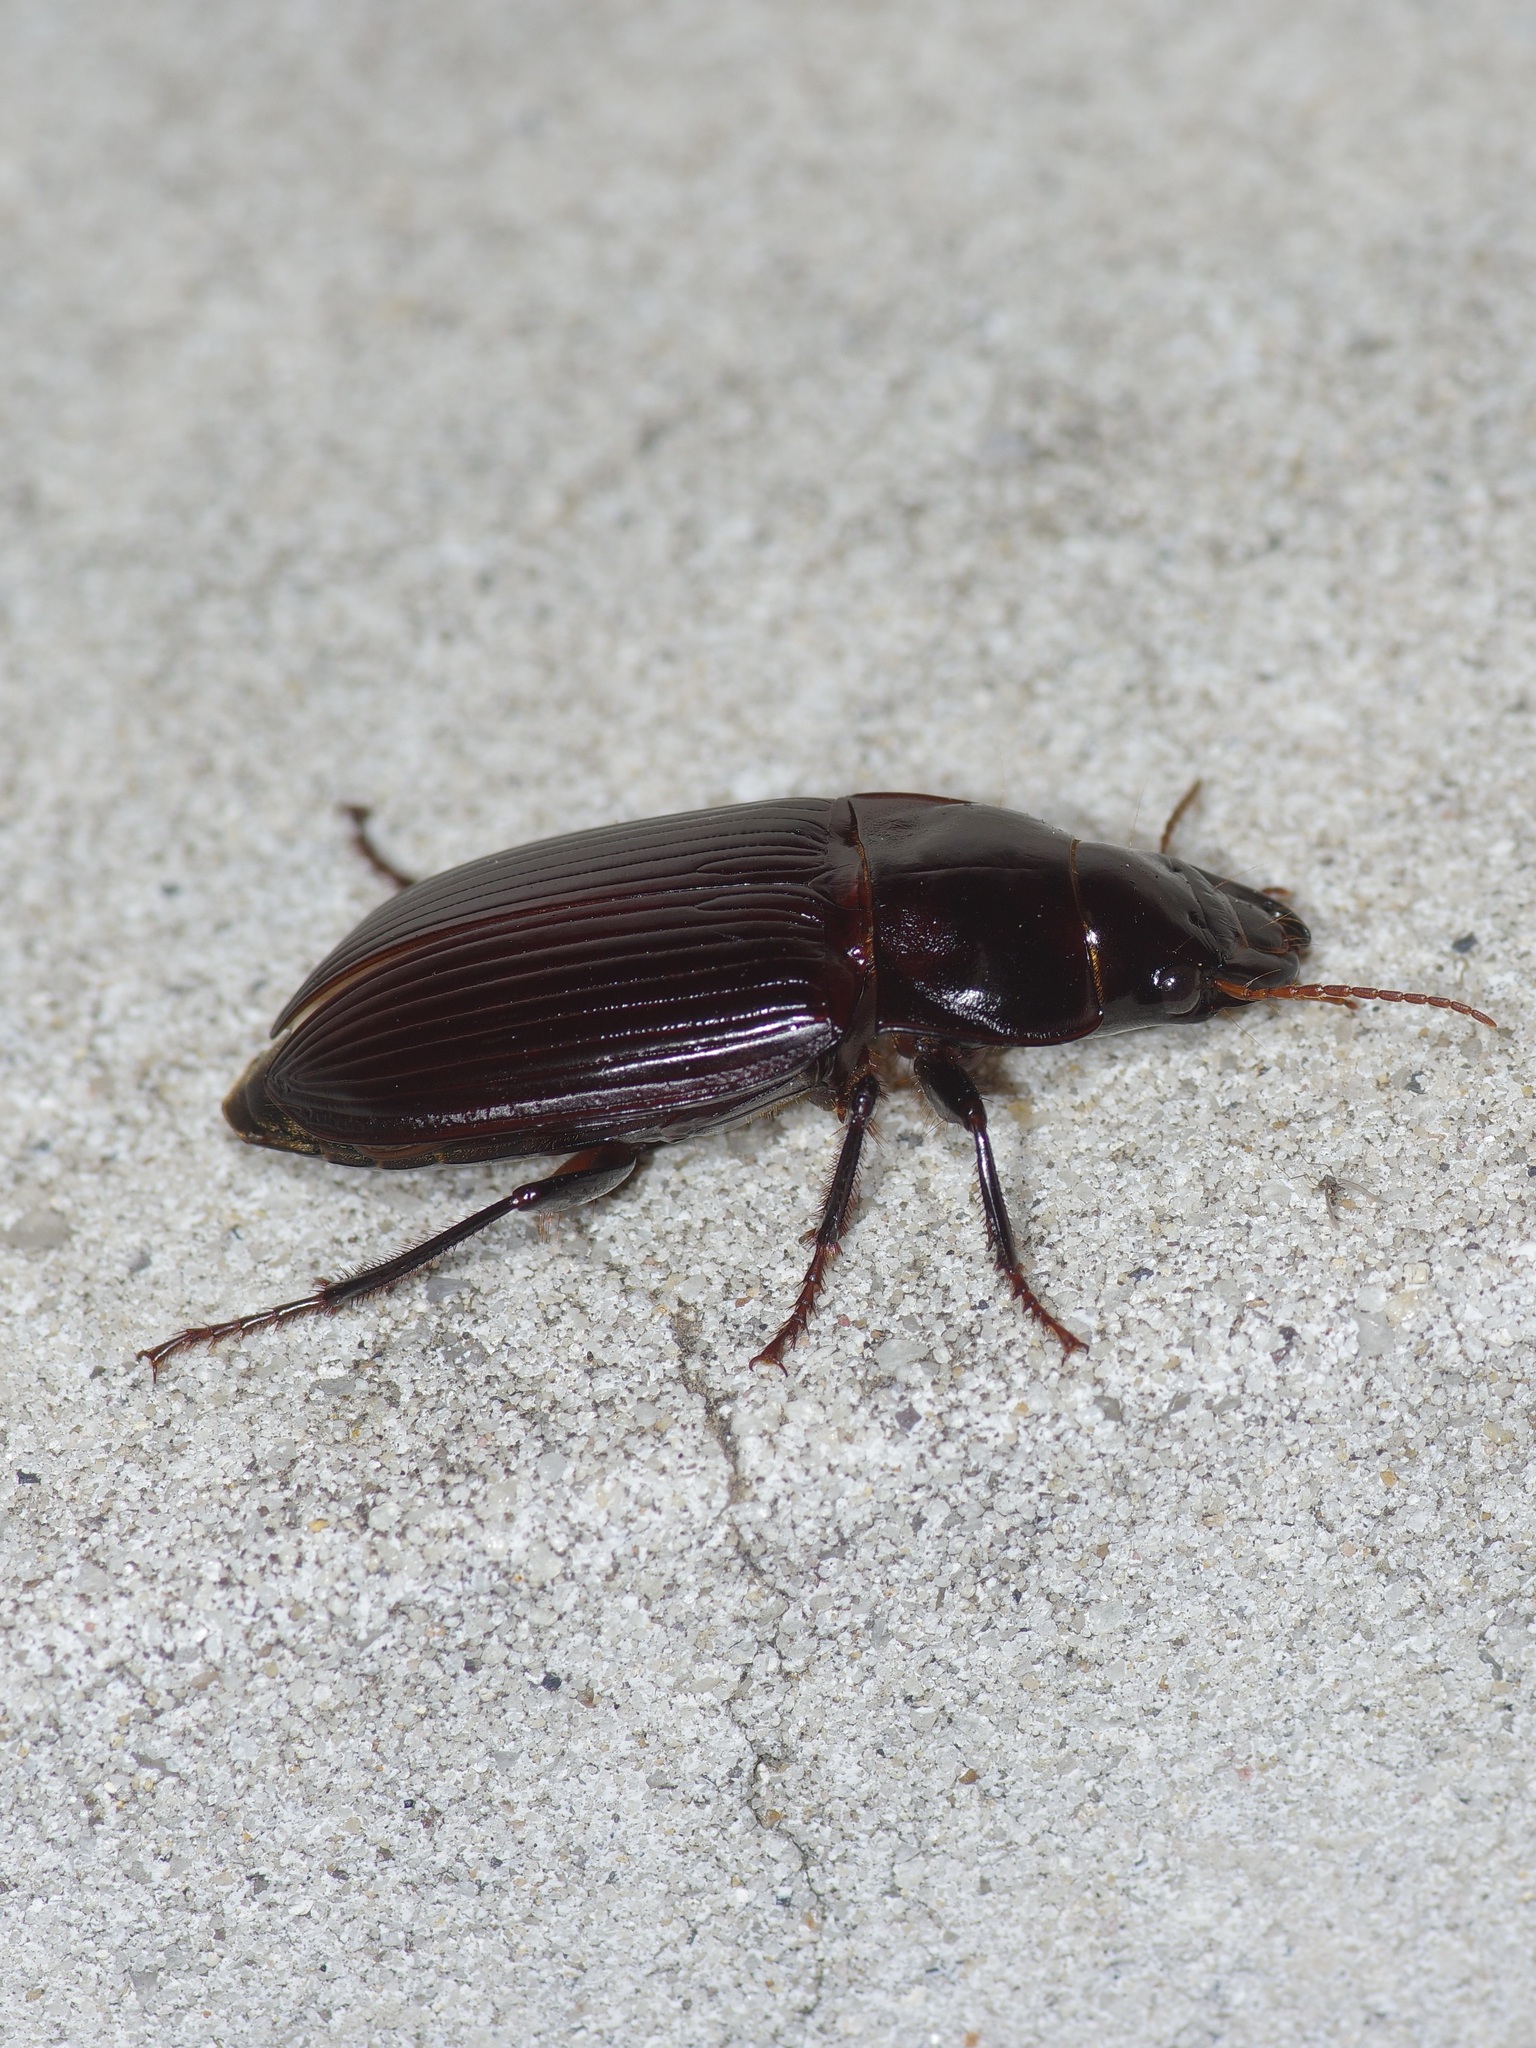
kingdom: Animalia
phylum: Arthropoda
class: Insecta
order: Coleoptera
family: Carabidae
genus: Harpalus
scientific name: Harpalus caliginosus
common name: Murky ground beetle
